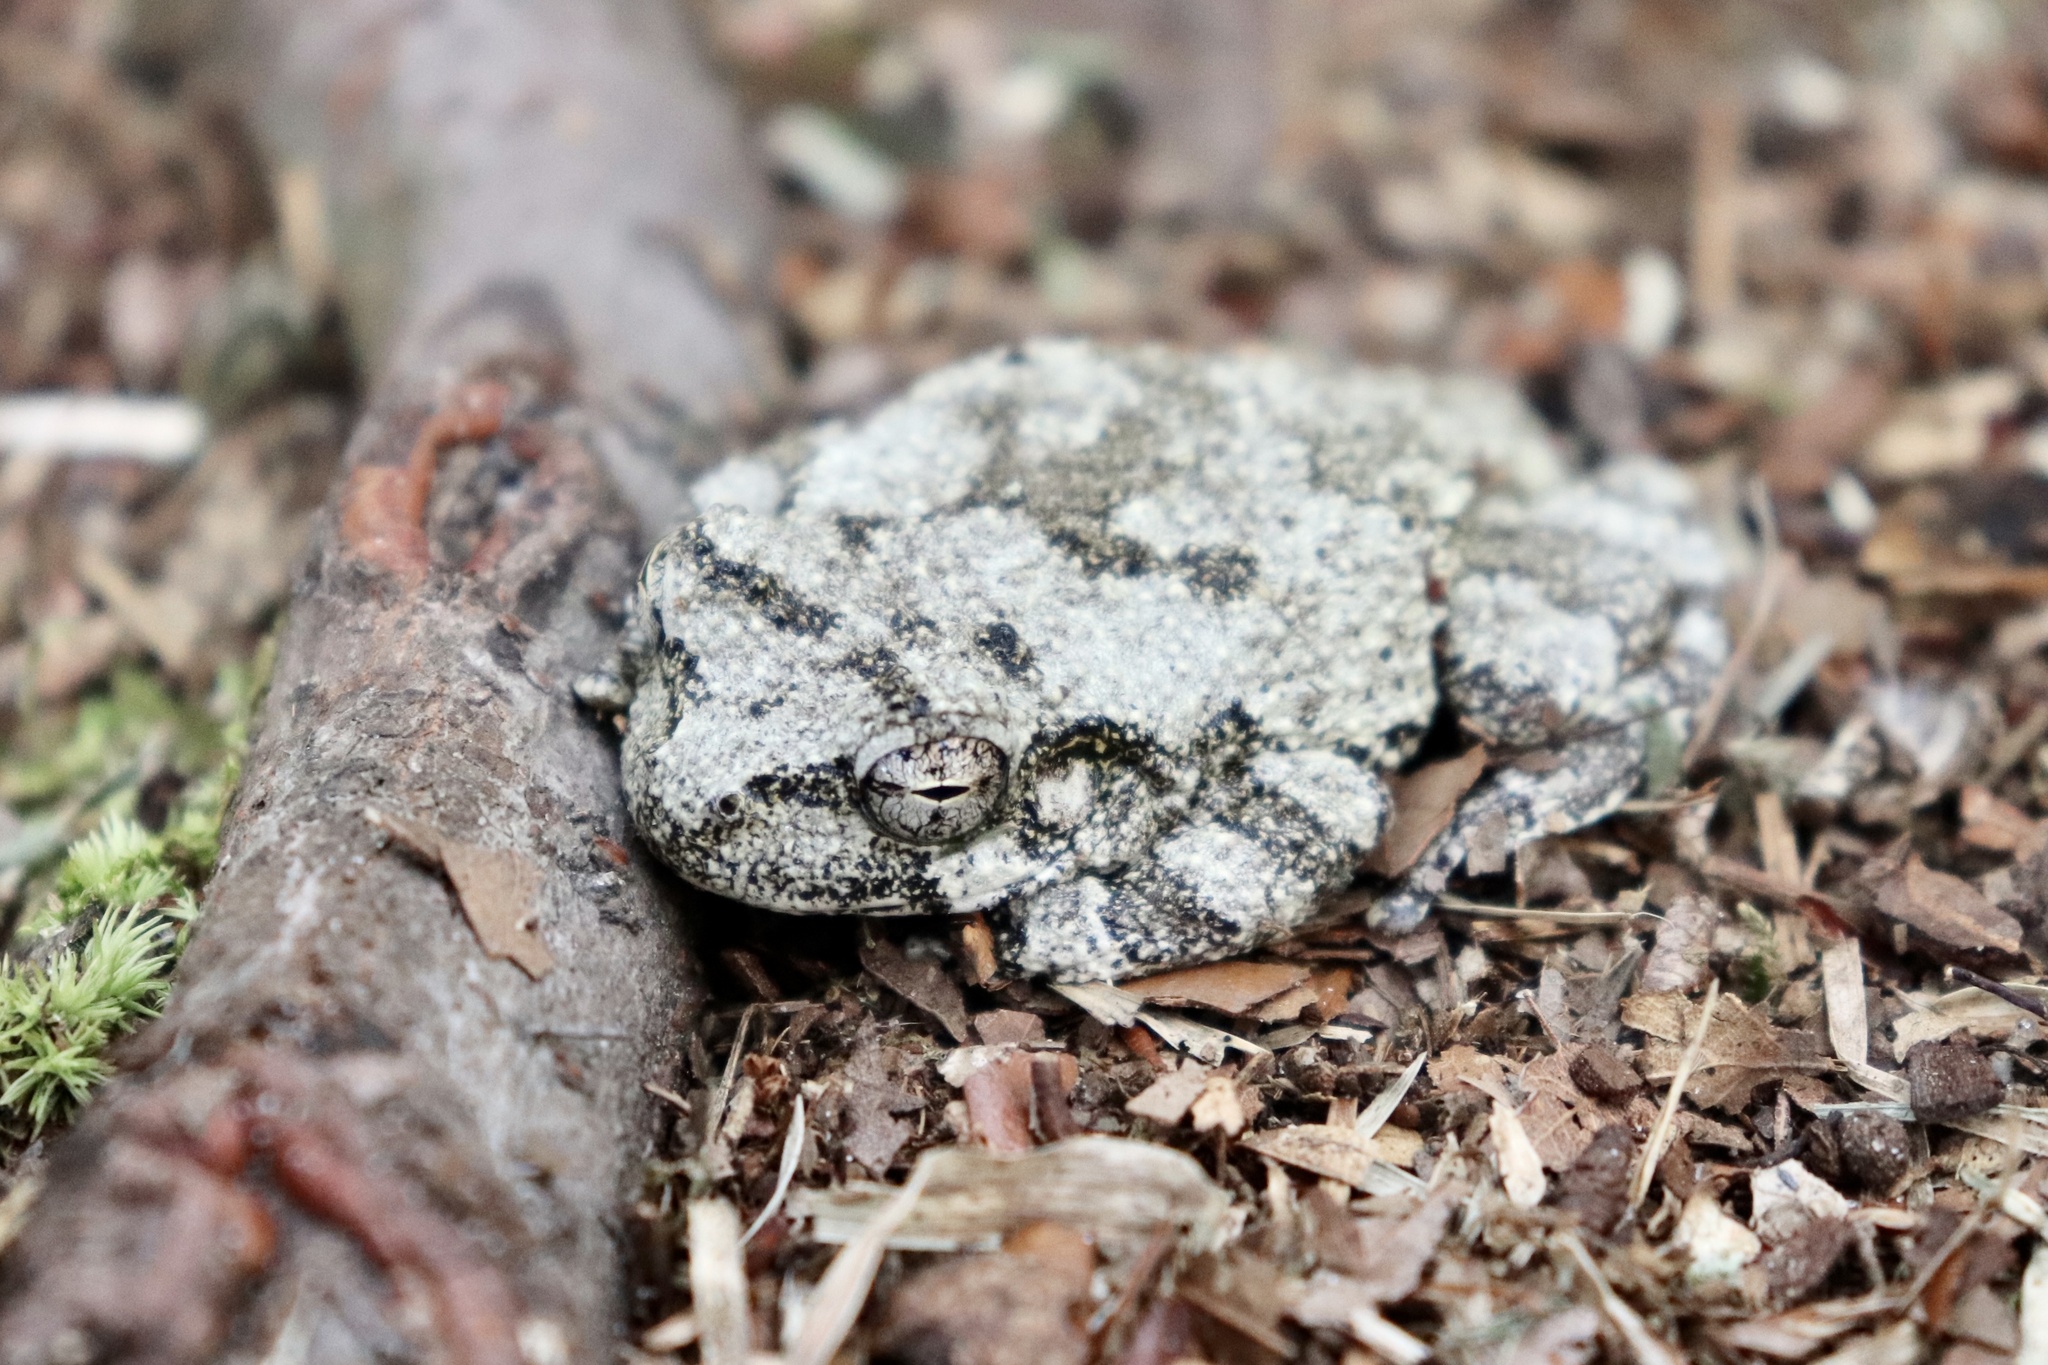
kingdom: Animalia
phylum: Chordata
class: Amphibia
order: Anura
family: Hylidae
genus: Dryophytes
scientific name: Dryophytes chrysoscelis
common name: Cope's gray treefrog
